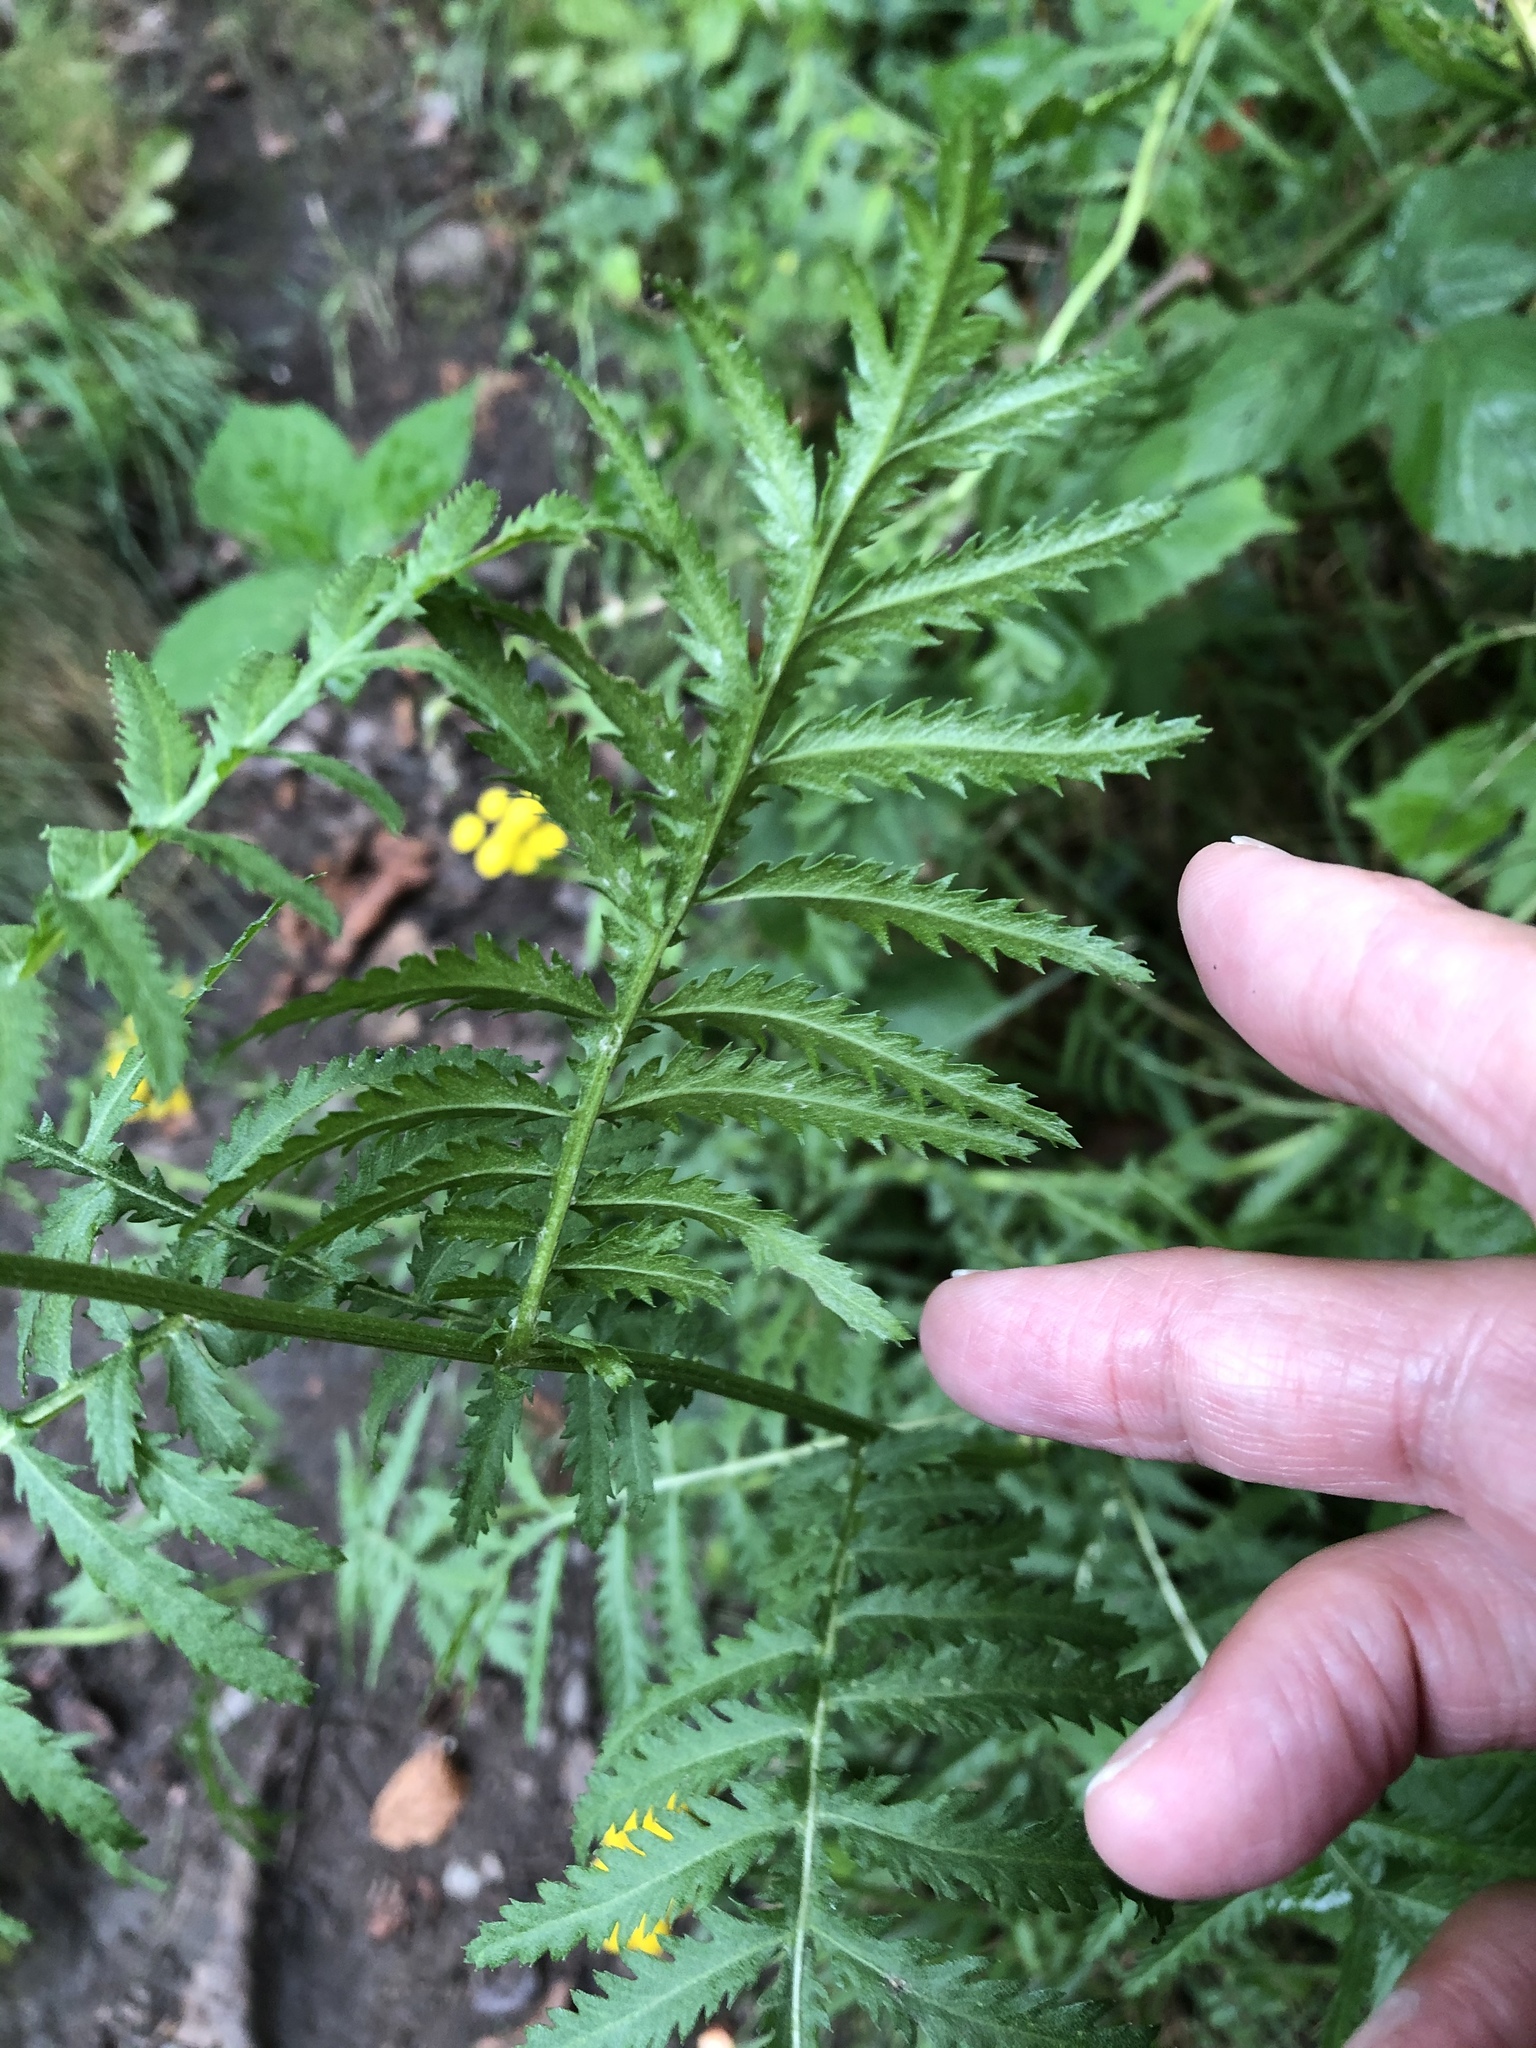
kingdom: Plantae
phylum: Tracheophyta
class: Magnoliopsida
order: Asterales
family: Asteraceae
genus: Tanacetum
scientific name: Tanacetum vulgare
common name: Common tansy
